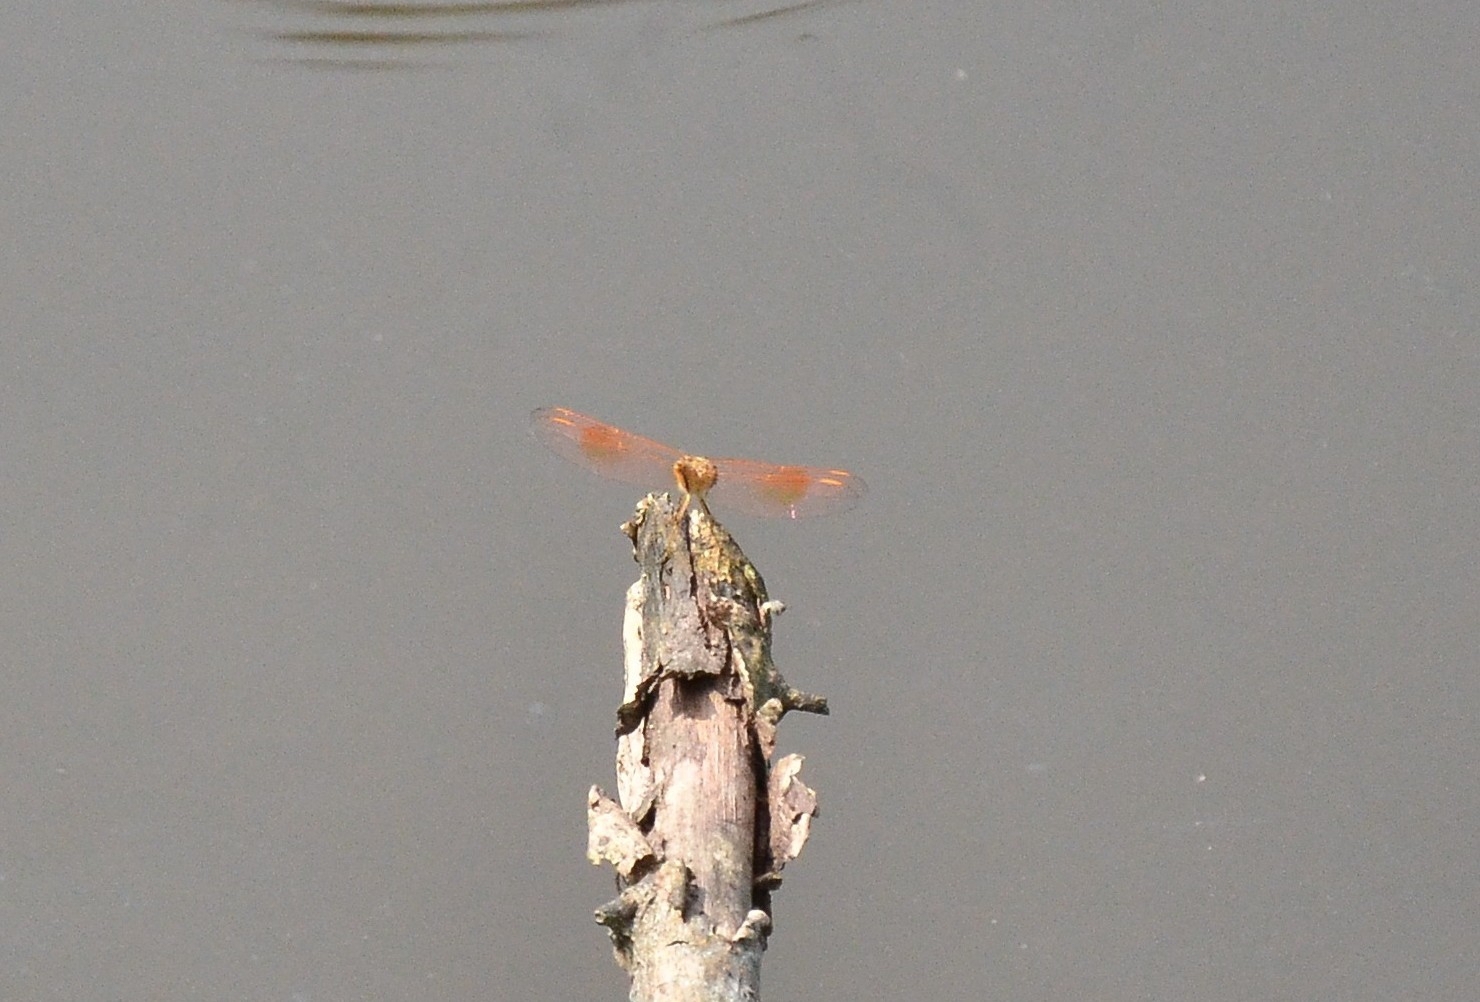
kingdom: Animalia
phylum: Arthropoda
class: Insecta
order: Odonata
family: Libellulidae
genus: Brachythemis
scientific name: Brachythemis contaminata
